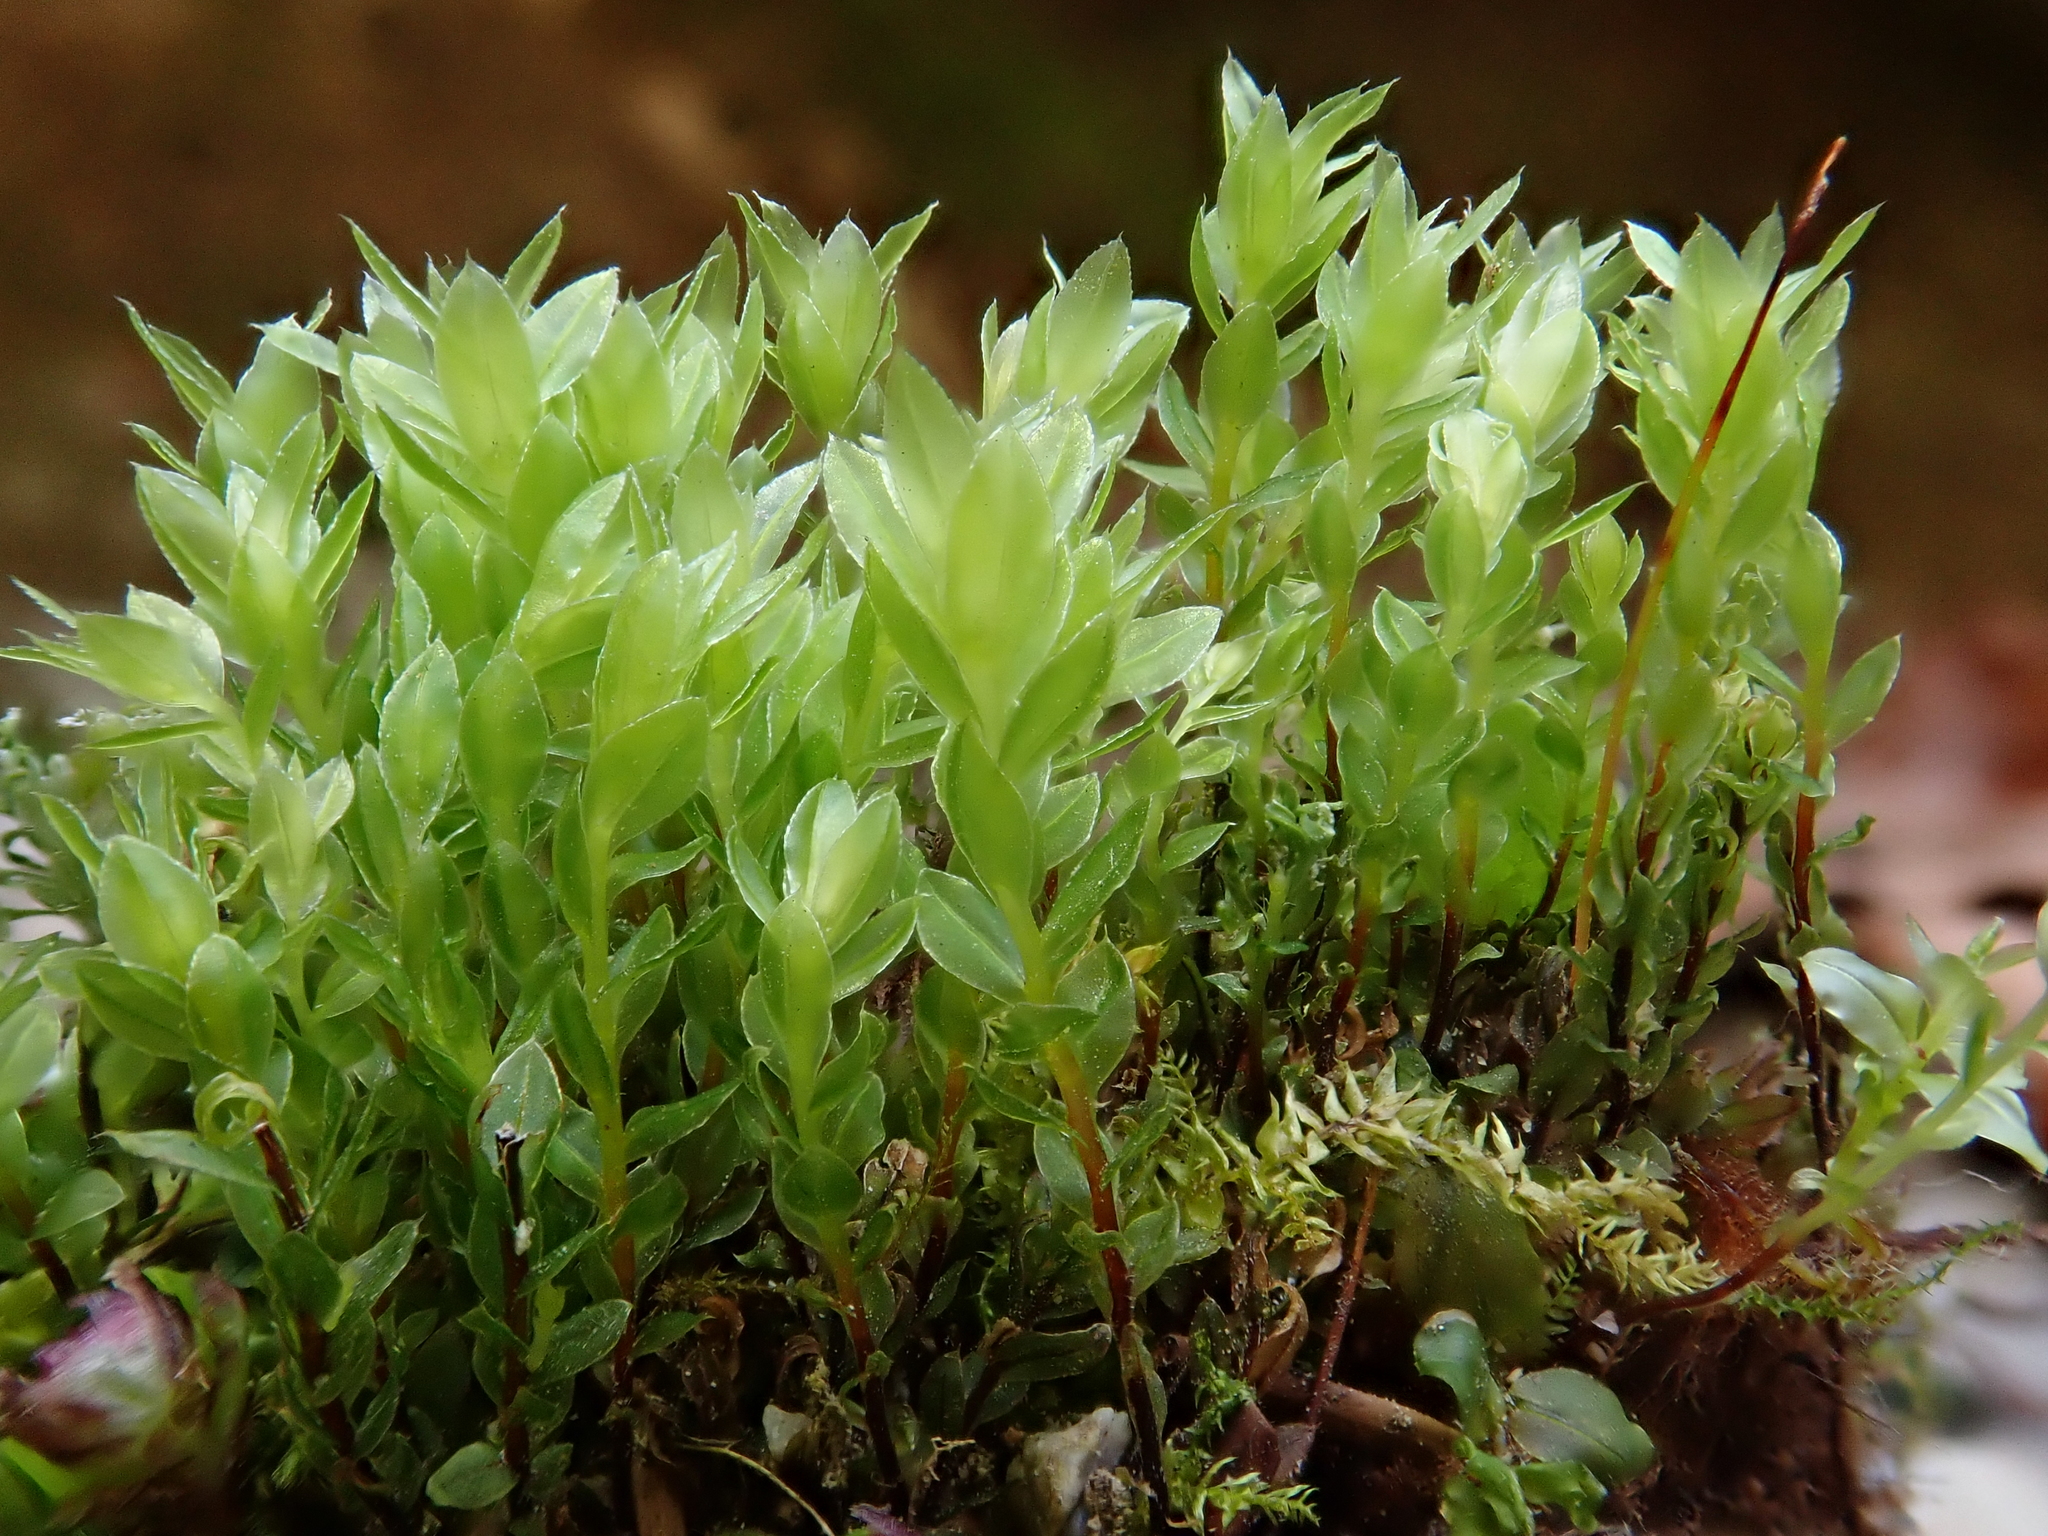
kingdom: Plantae
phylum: Bryophyta
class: Bryopsida
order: Bryales
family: Mniaceae
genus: Mnium
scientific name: Mnium marginatum
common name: Bordered leafy moss
